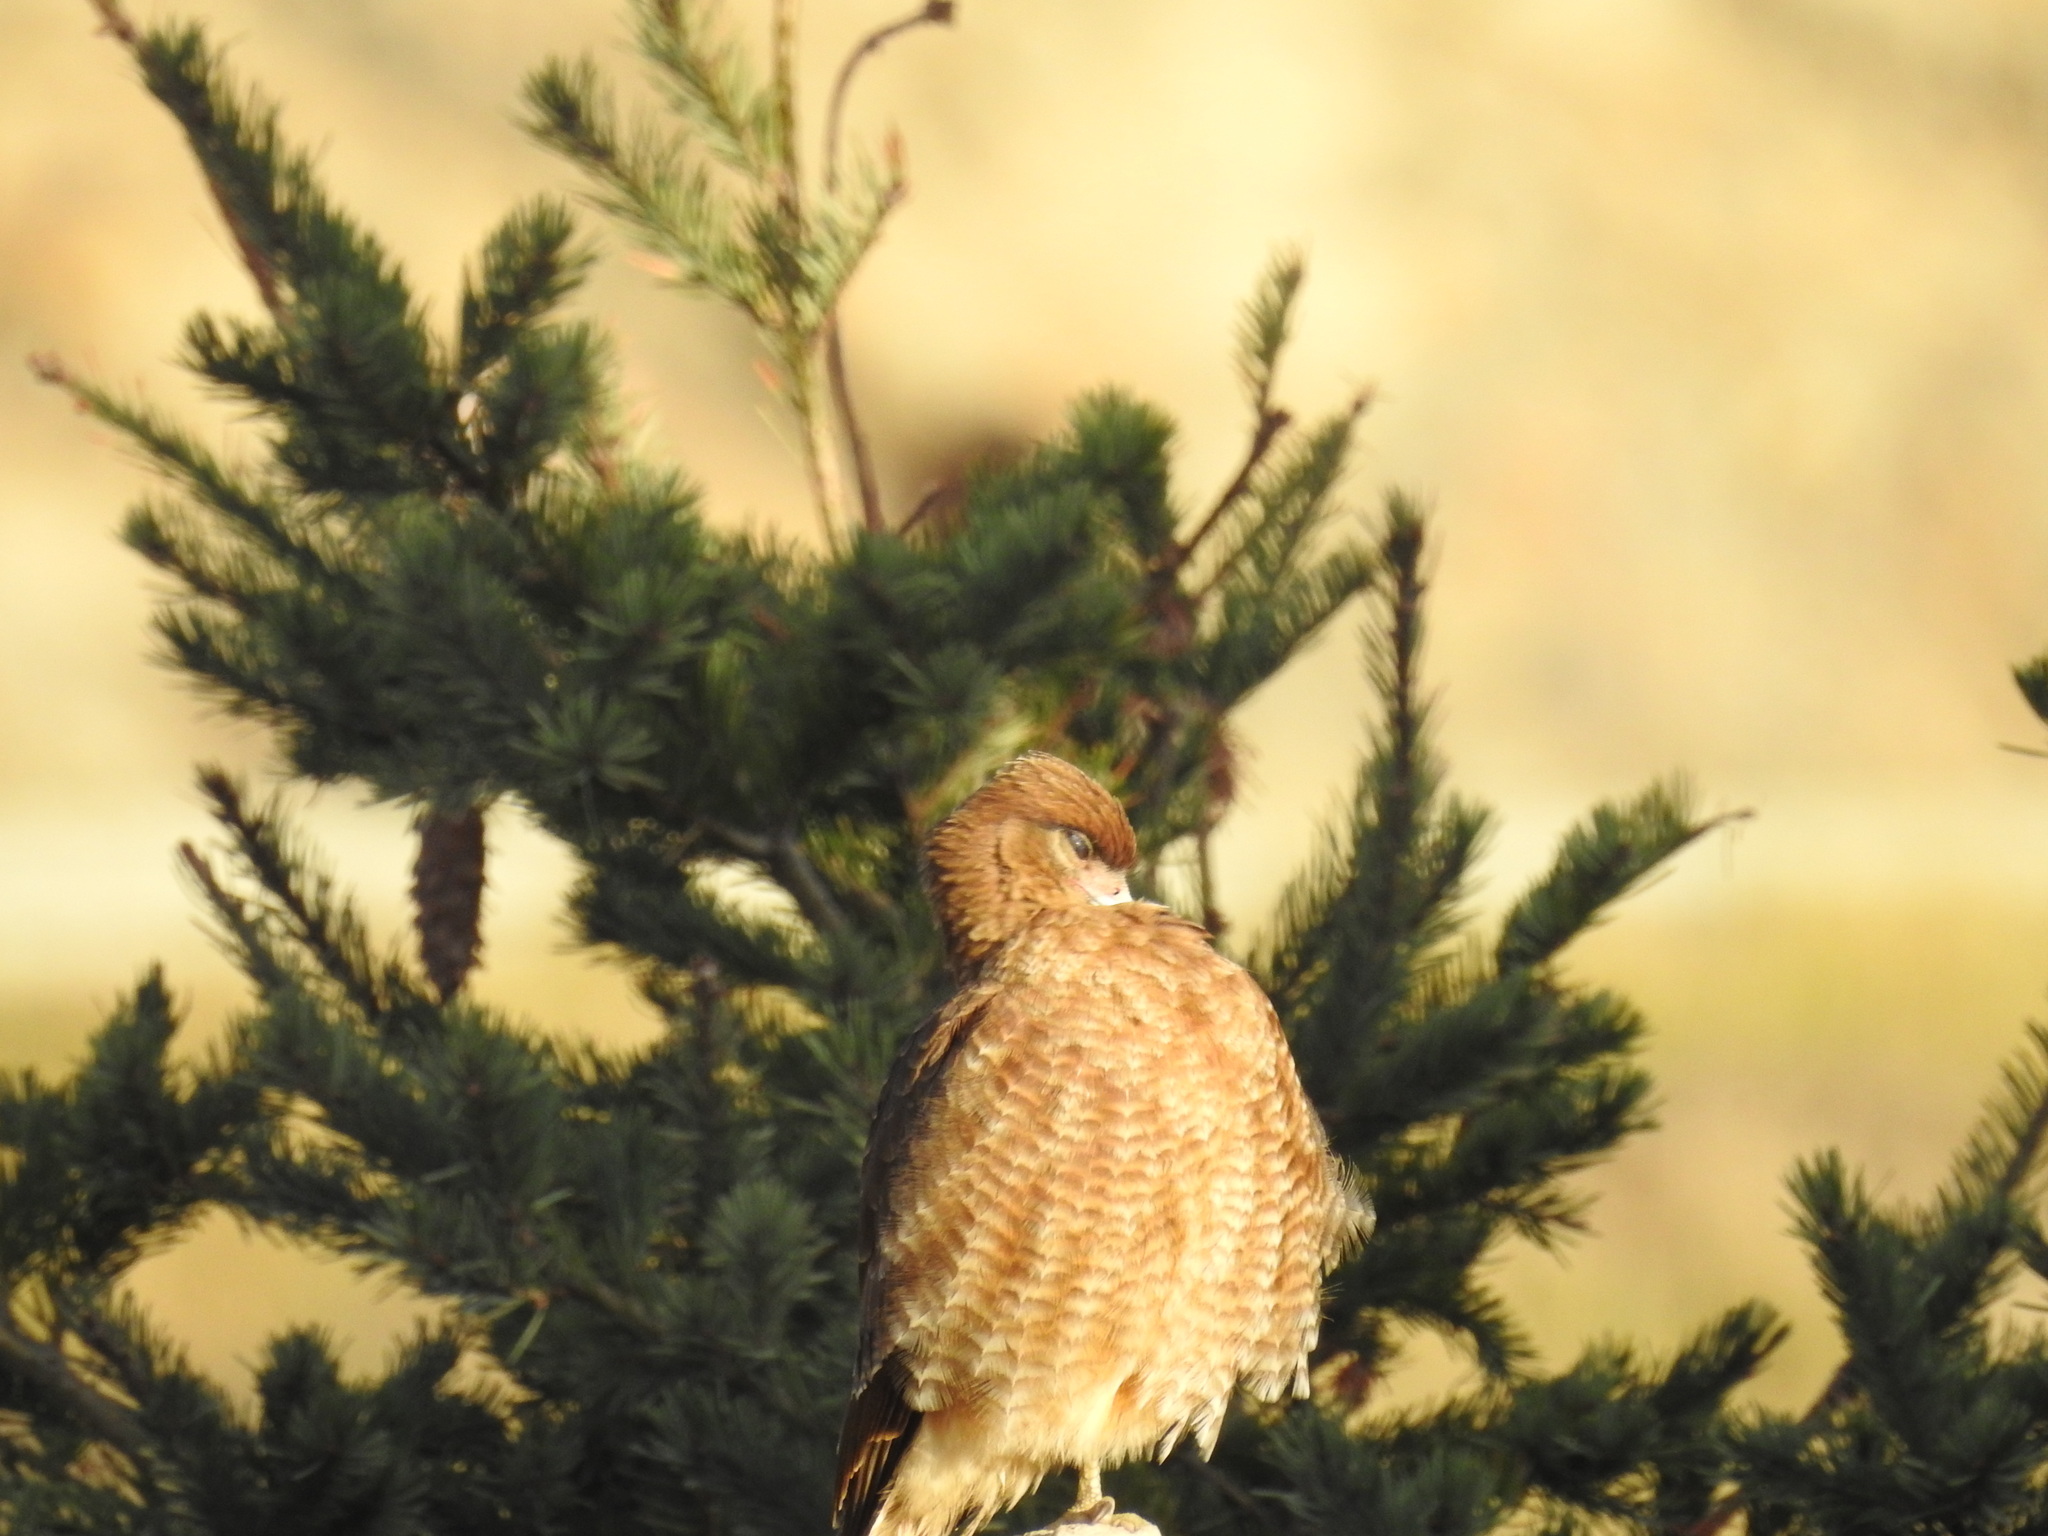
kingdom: Animalia
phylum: Chordata
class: Aves
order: Falconiformes
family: Falconidae
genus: Daptrius
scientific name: Daptrius
